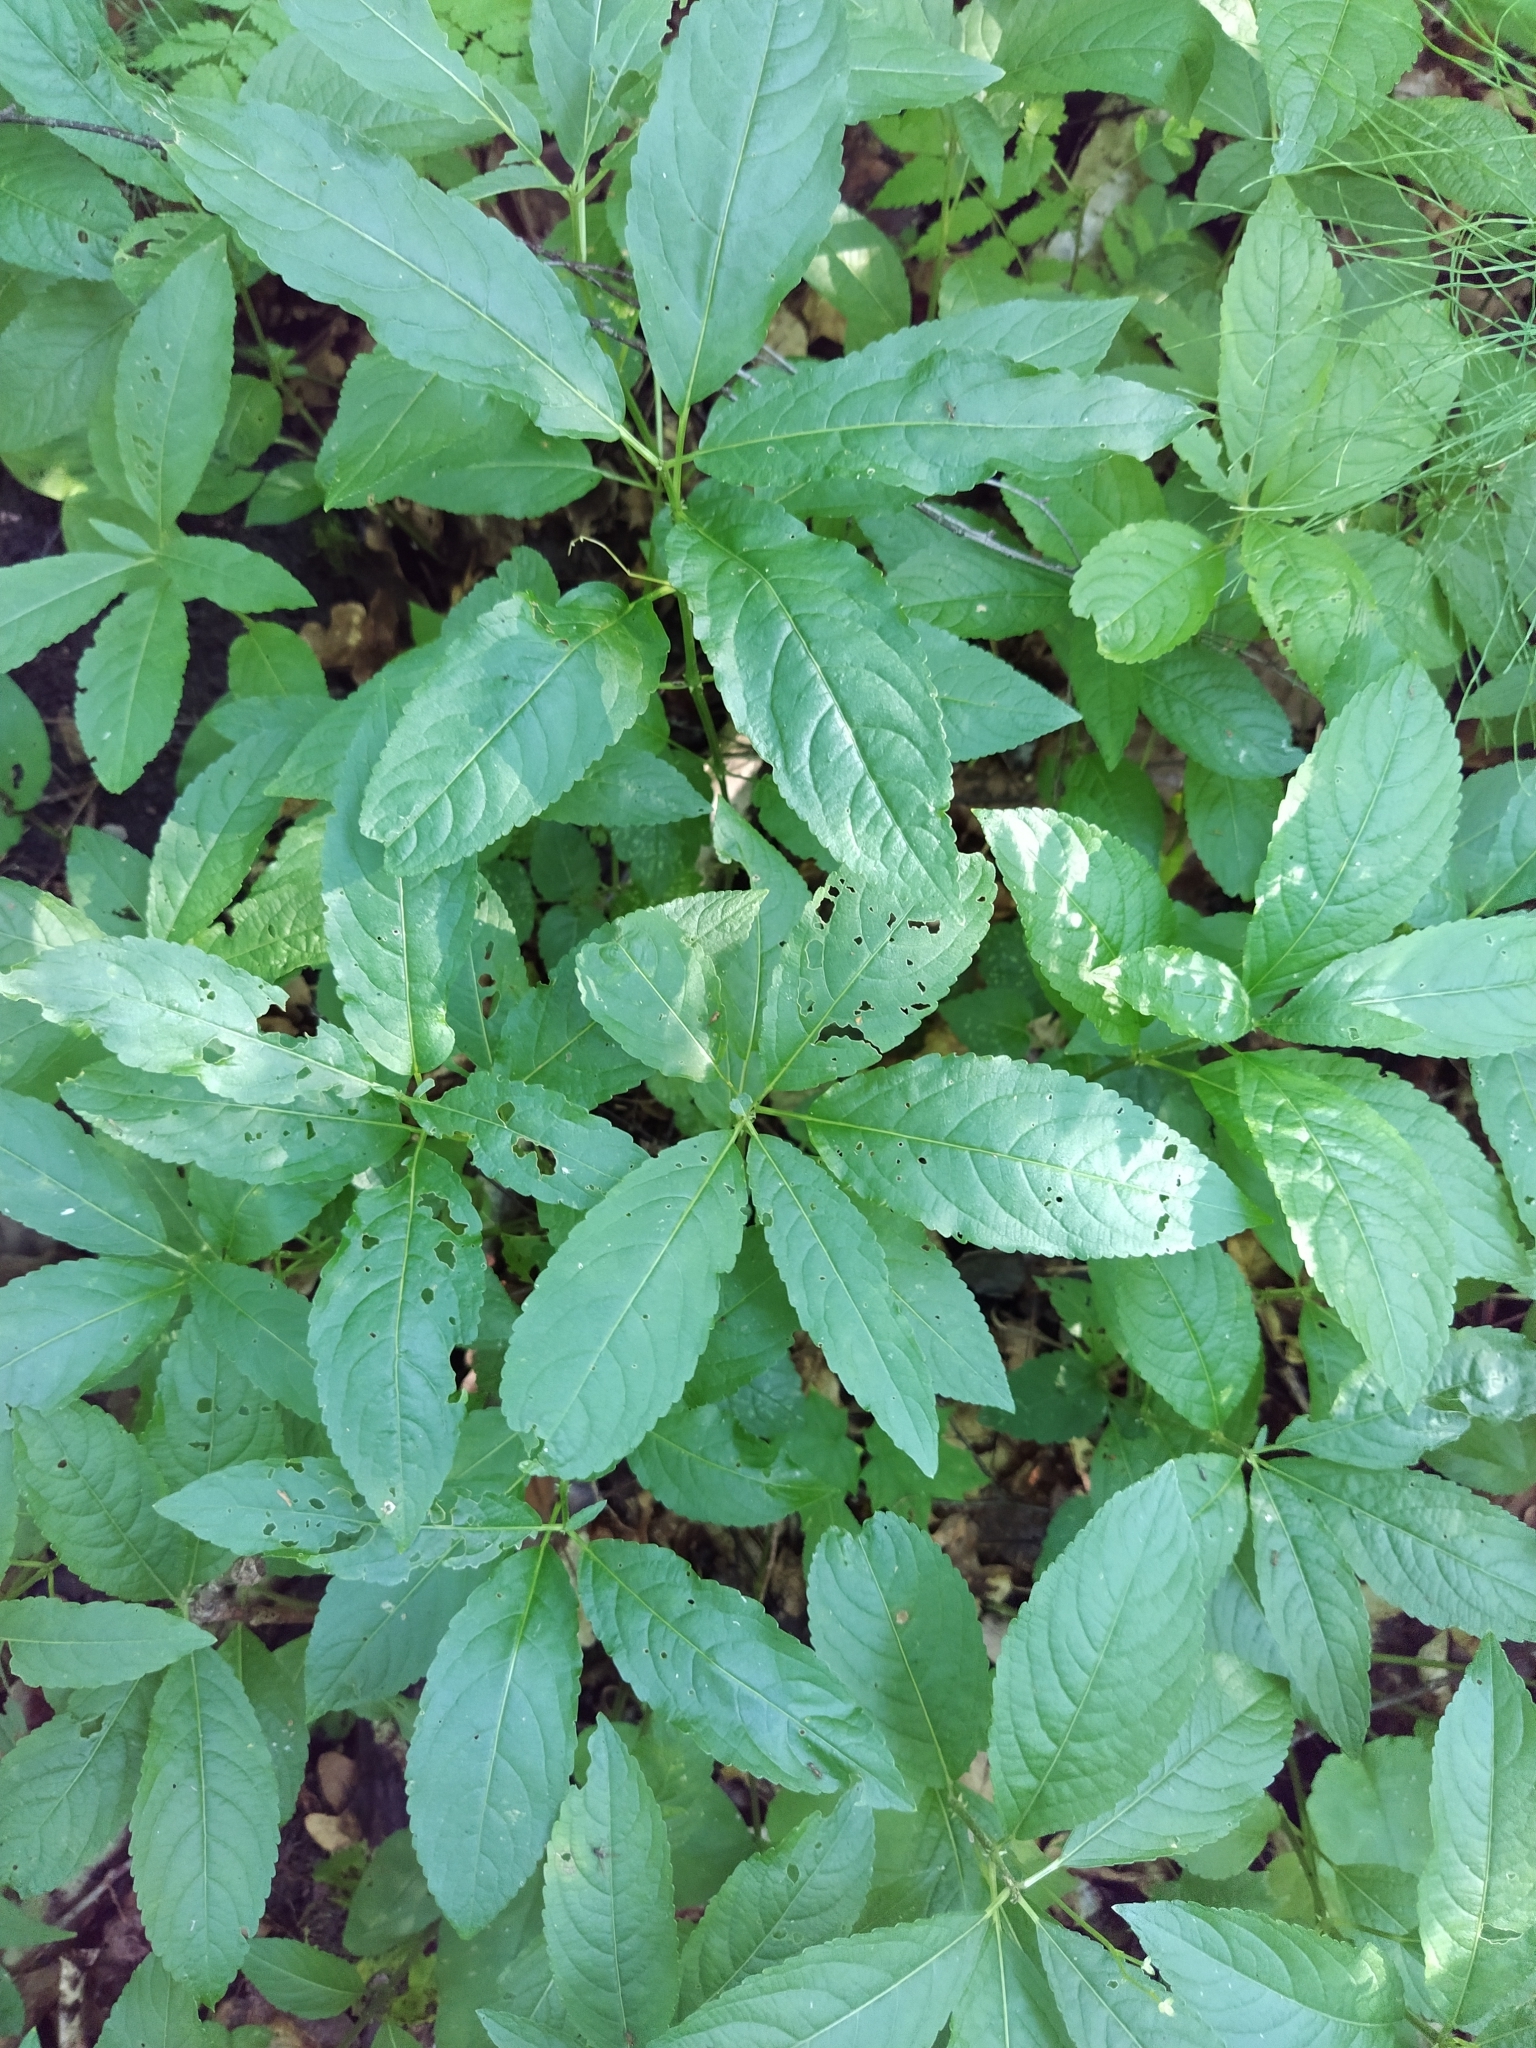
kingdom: Plantae
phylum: Tracheophyta
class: Magnoliopsida
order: Malpighiales
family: Euphorbiaceae
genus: Mercurialis
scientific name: Mercurialis perennis
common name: Dog mercury
